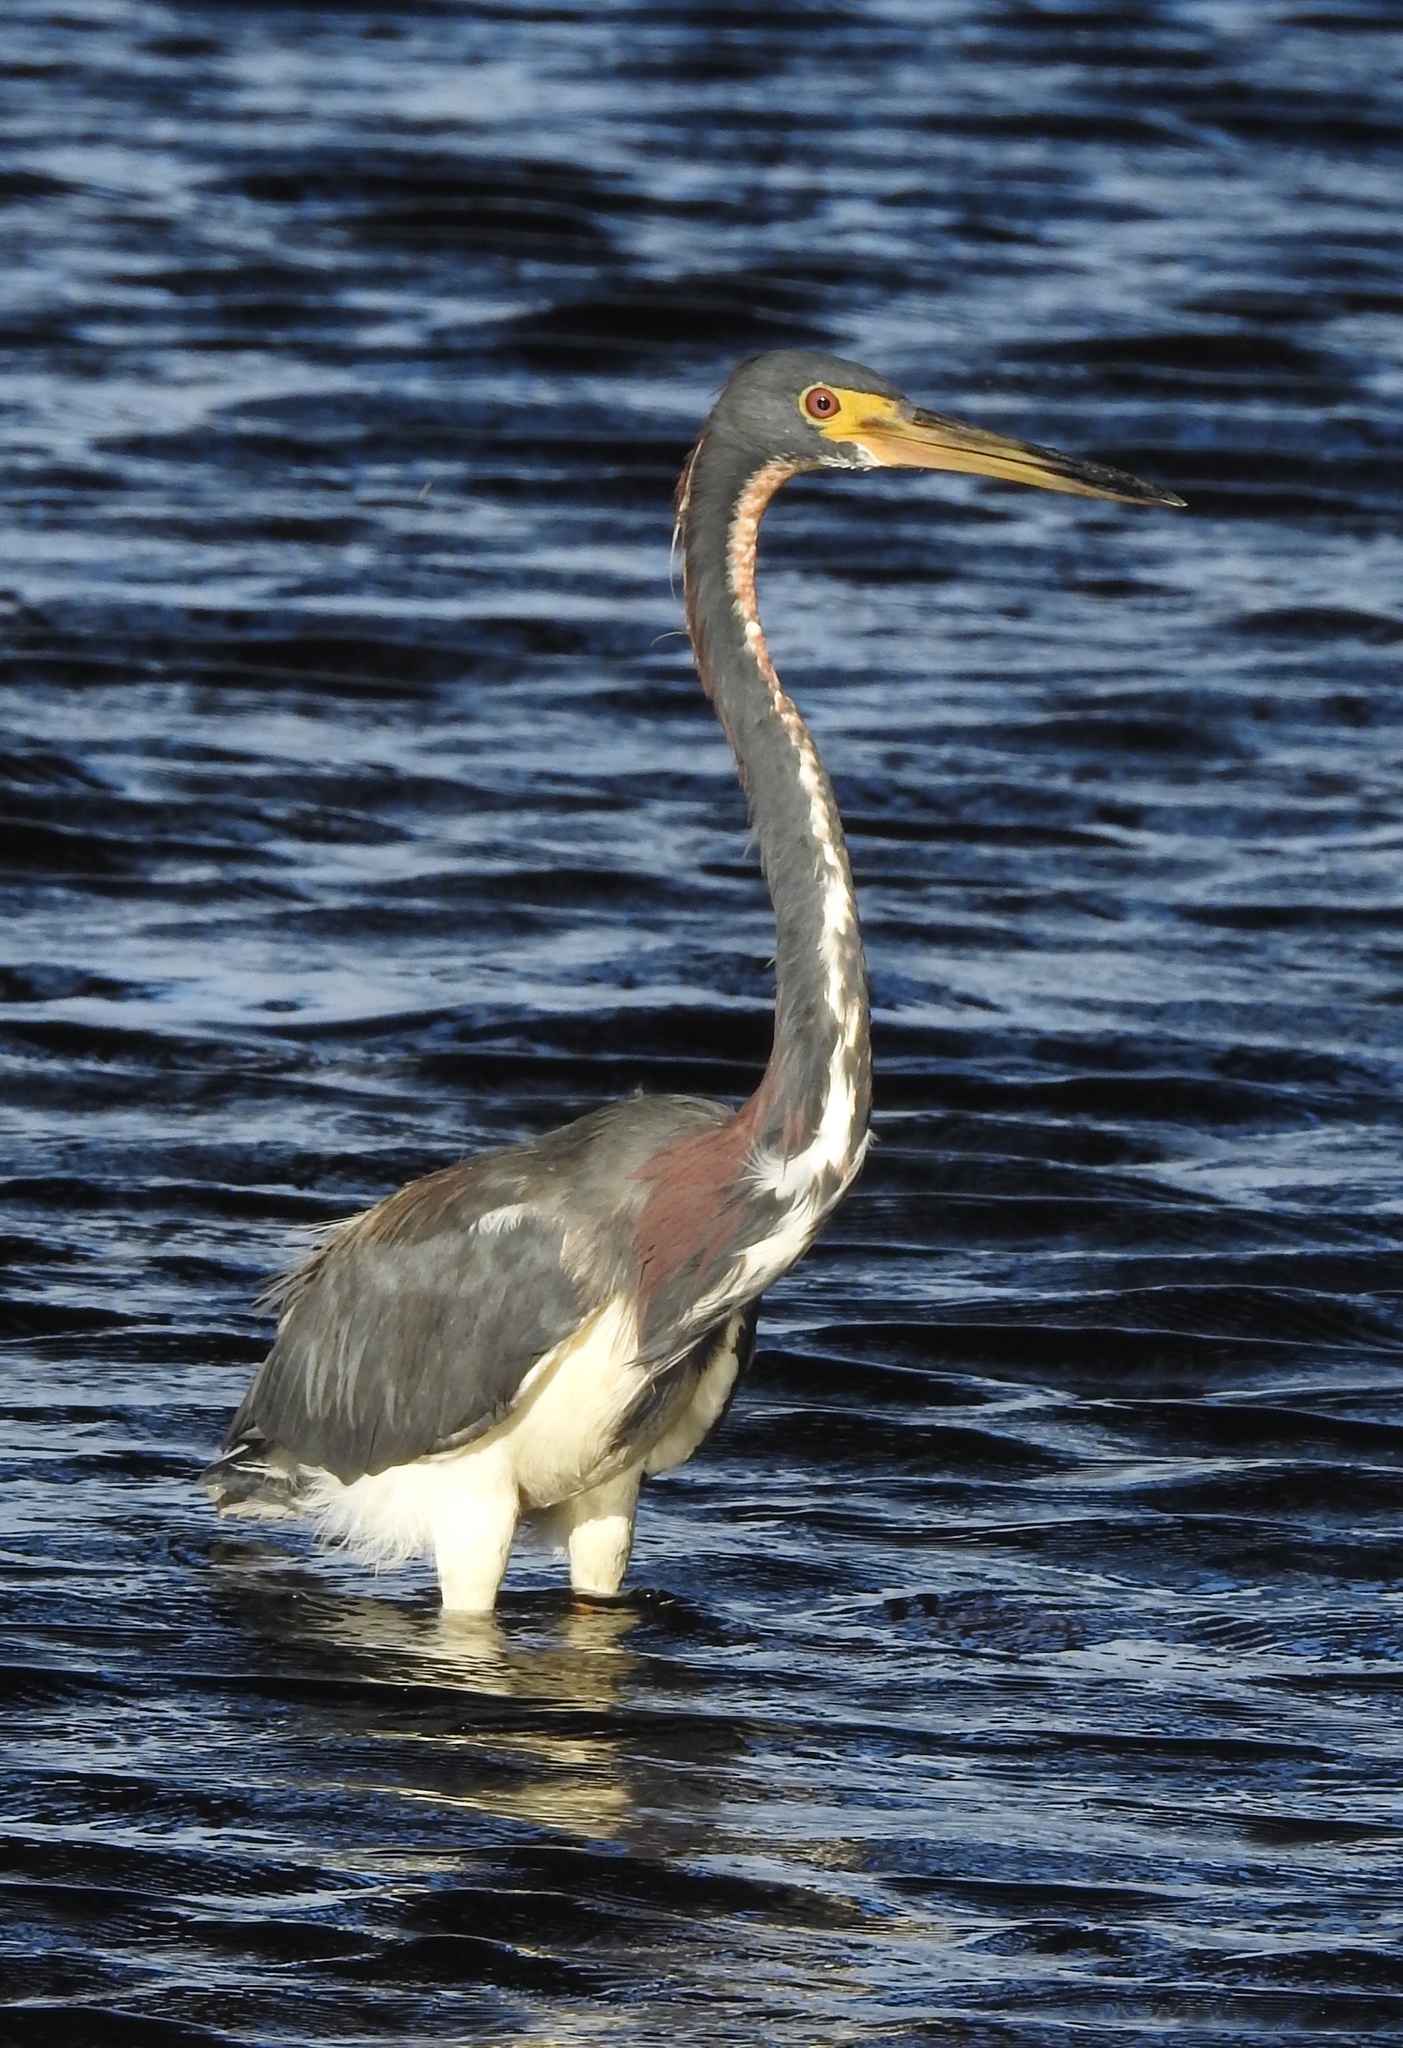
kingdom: Animalia
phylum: Chordata
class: Aves
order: Pelecaniformes
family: Ardeidae
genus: Egretta
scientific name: Egretta tricolor
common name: Tricolored heron
